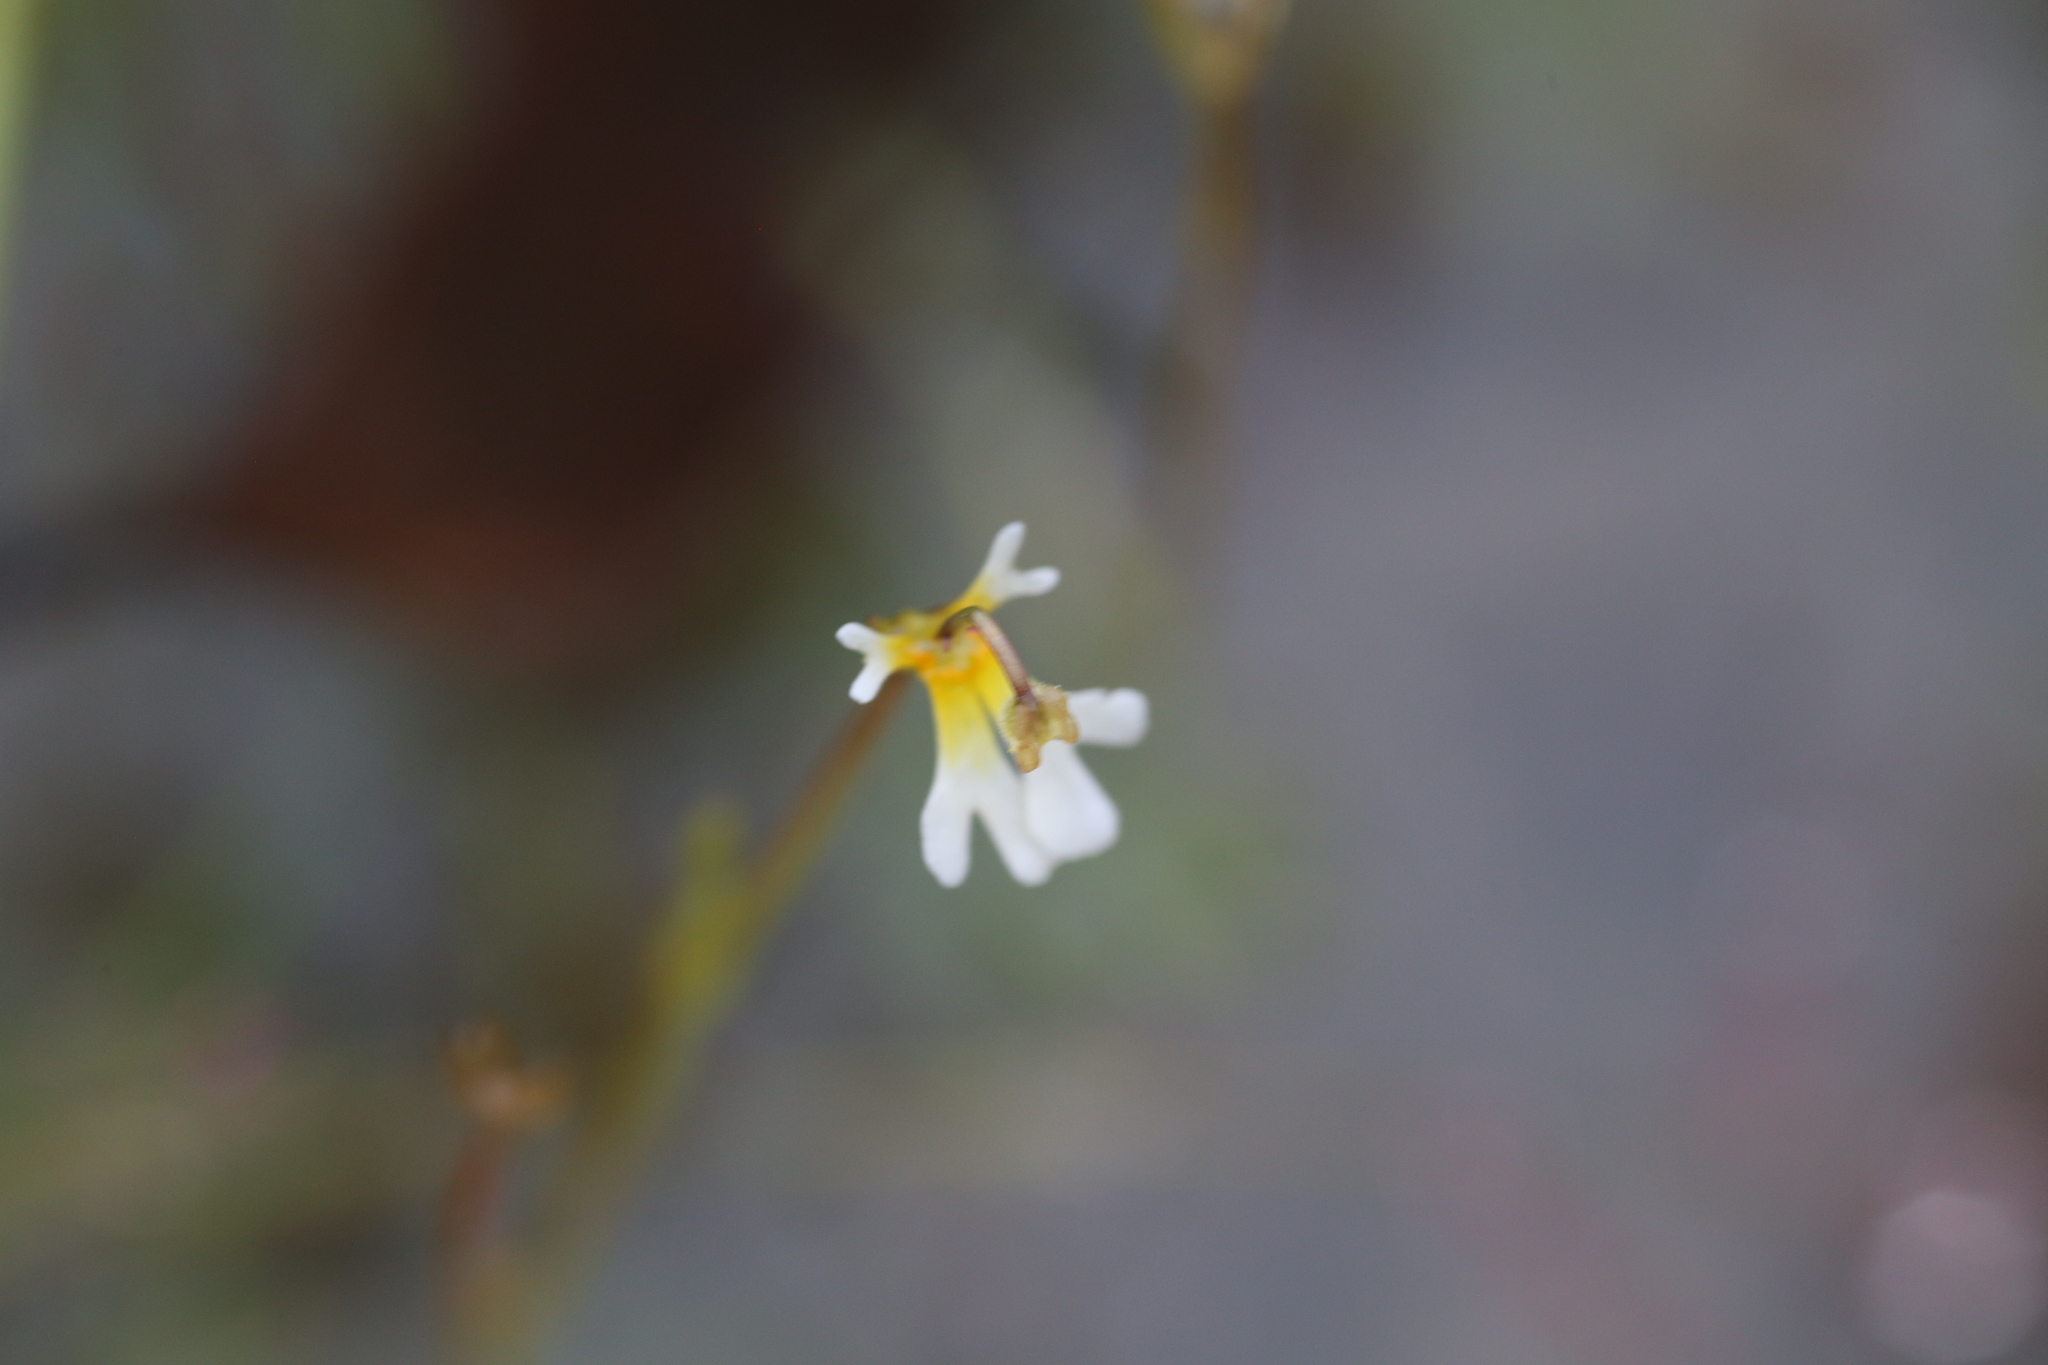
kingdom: Plantae
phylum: Tracheophyta
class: Magnoliopsida
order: Asterales
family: Stylidiaceae
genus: Stylidium
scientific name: Stylidium oviflorum
